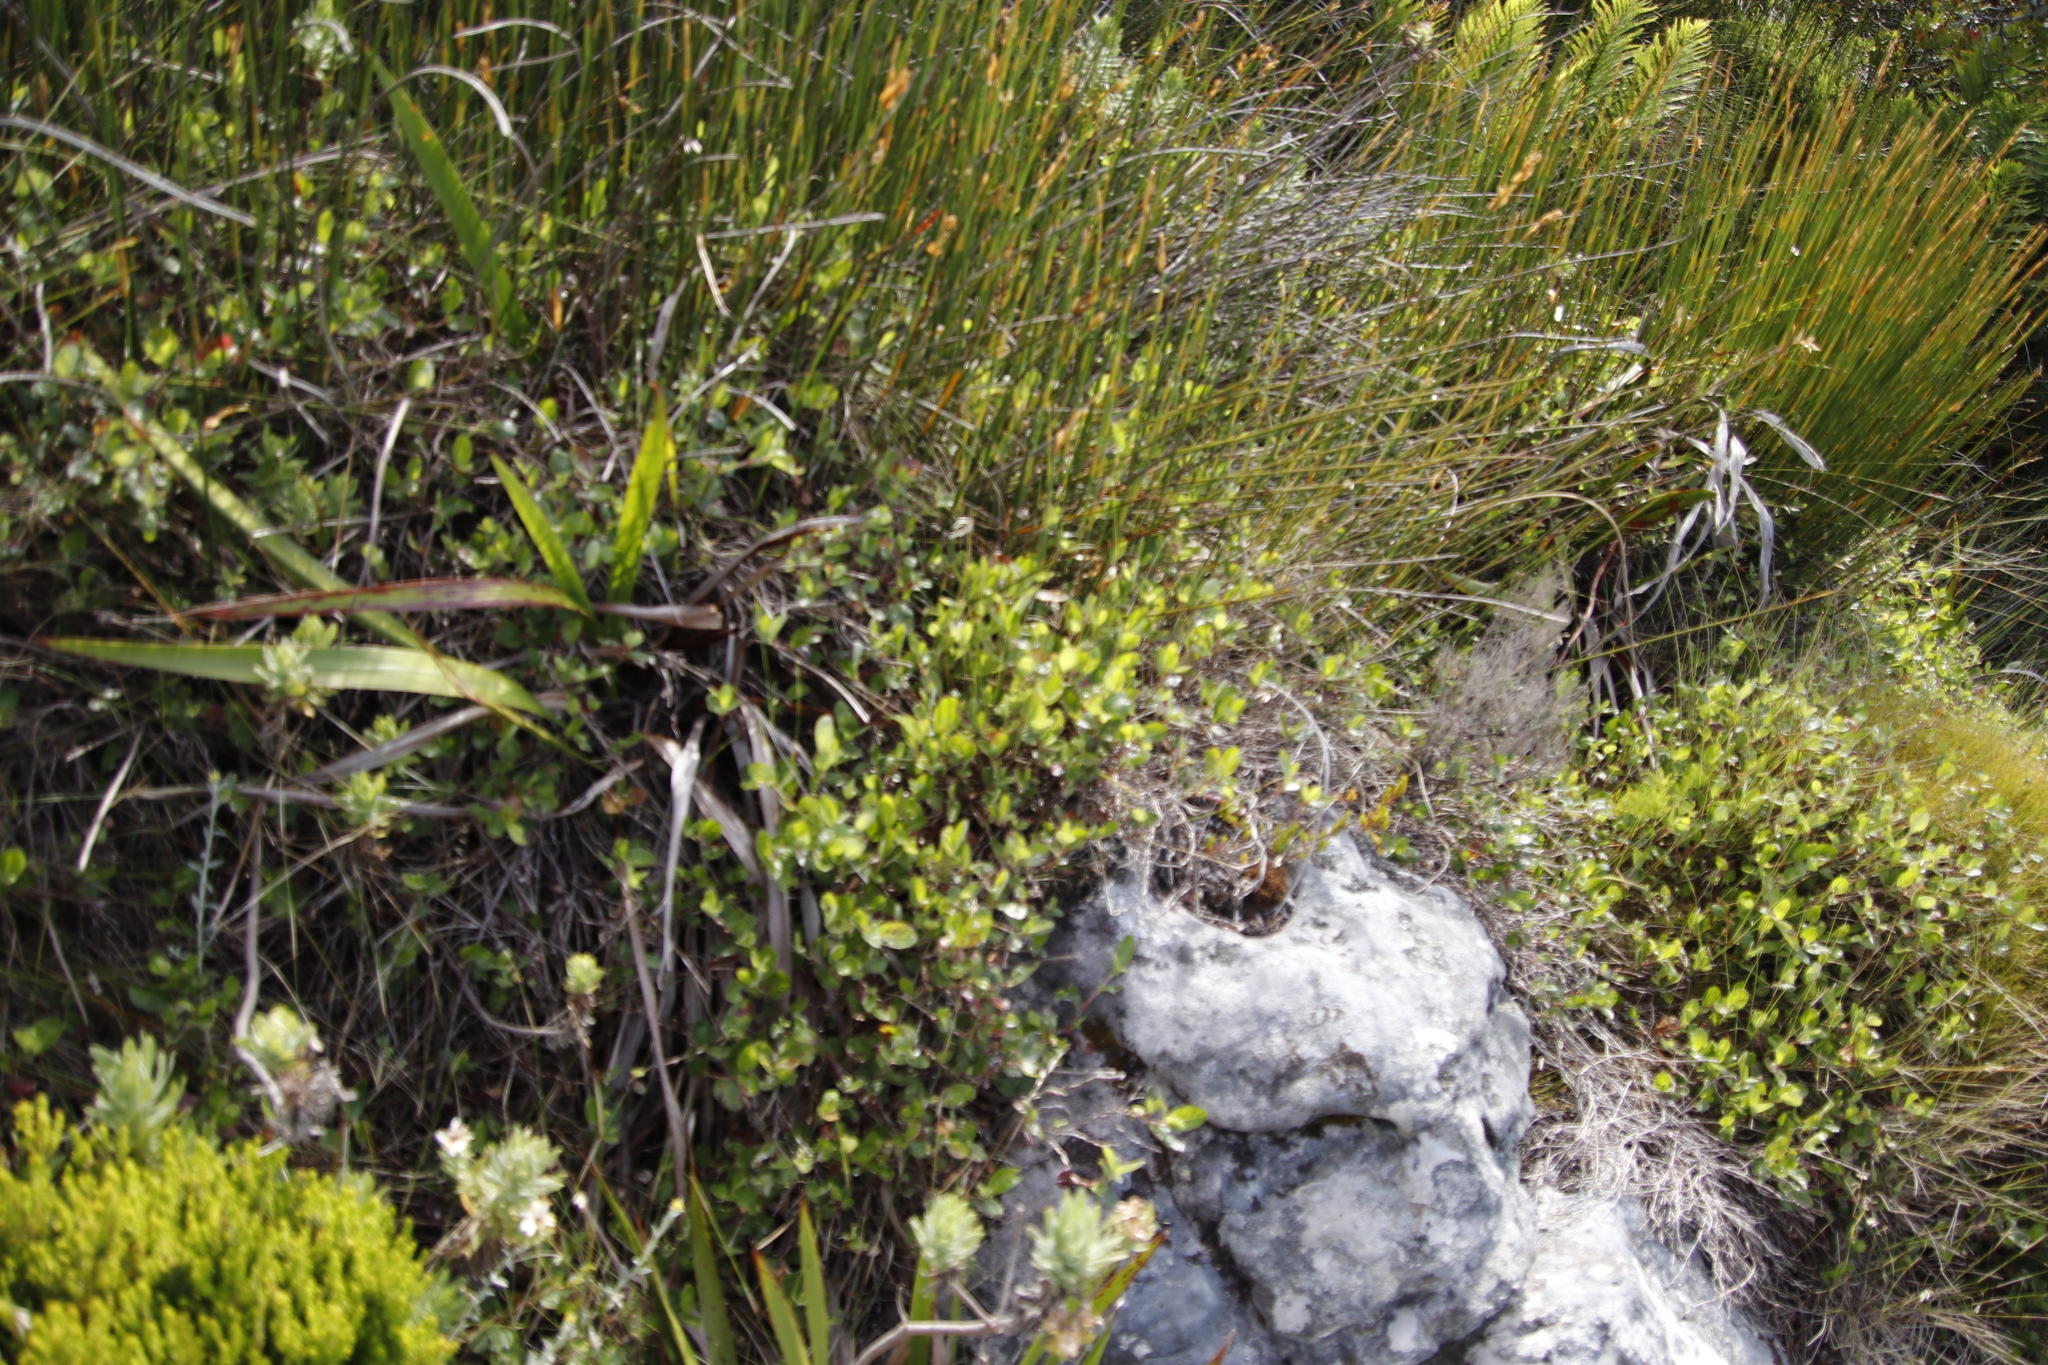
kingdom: Plantae
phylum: Tracheophyta
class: Magnoliopsida
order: Rosales
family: Rosaceae
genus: Cliffortia
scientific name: Cliffortia odorata
